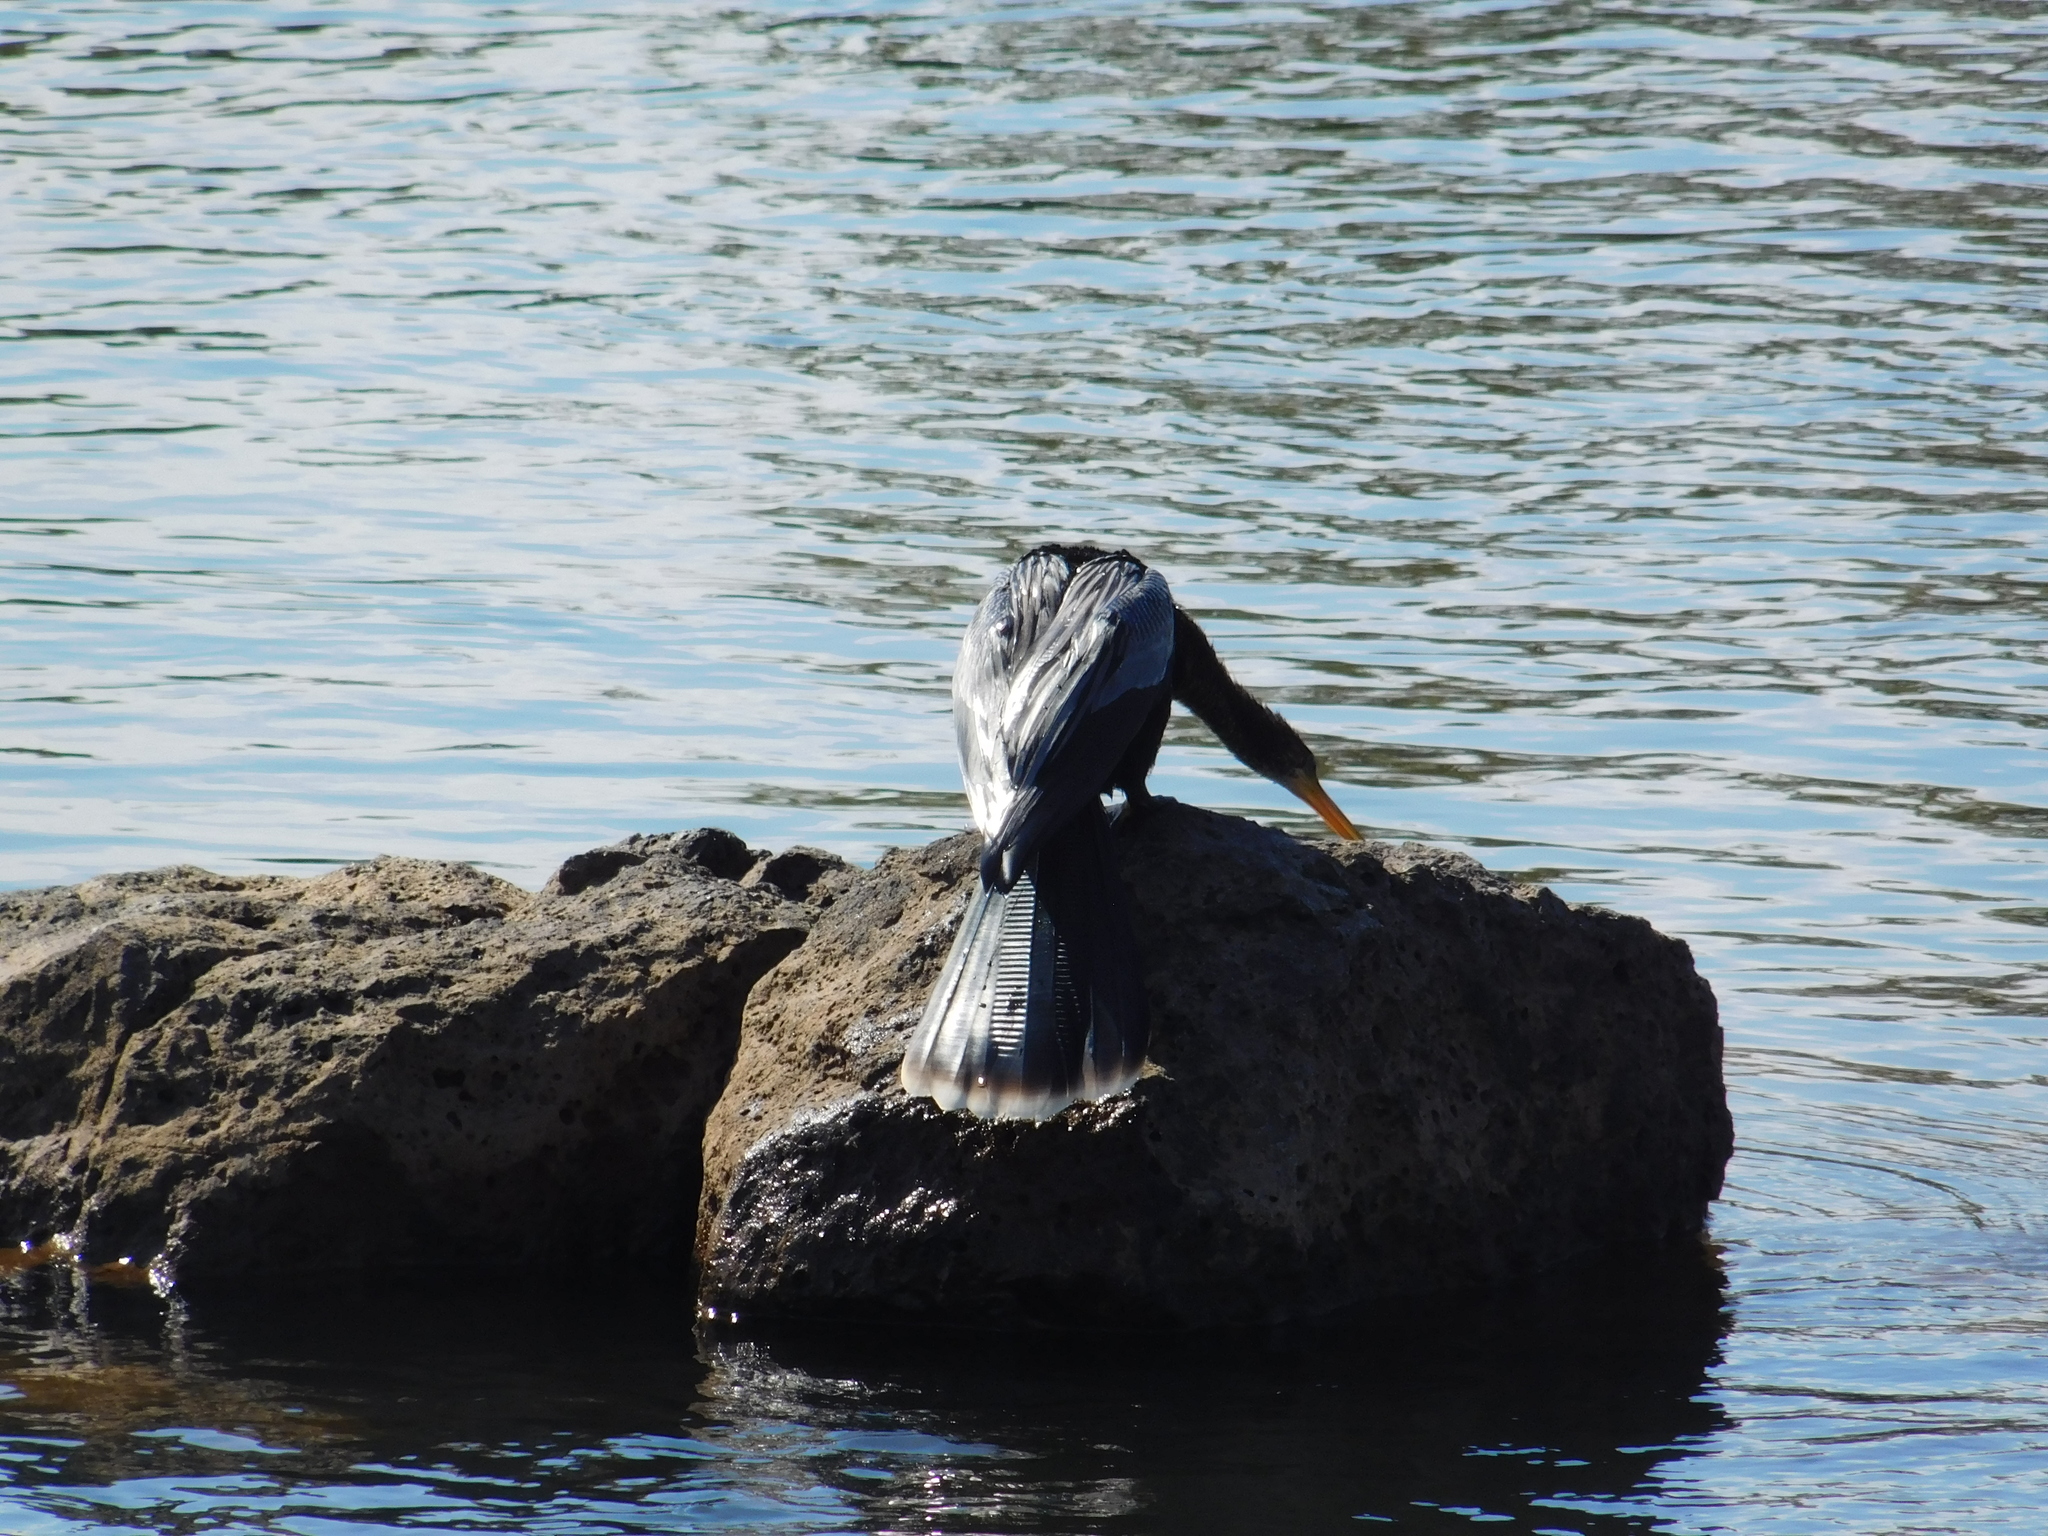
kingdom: Animalia
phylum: Chordata
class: Aves
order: Suliformes
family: Anhingidae
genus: Anhinga
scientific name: Anhinga anhinga
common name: Anhinga
